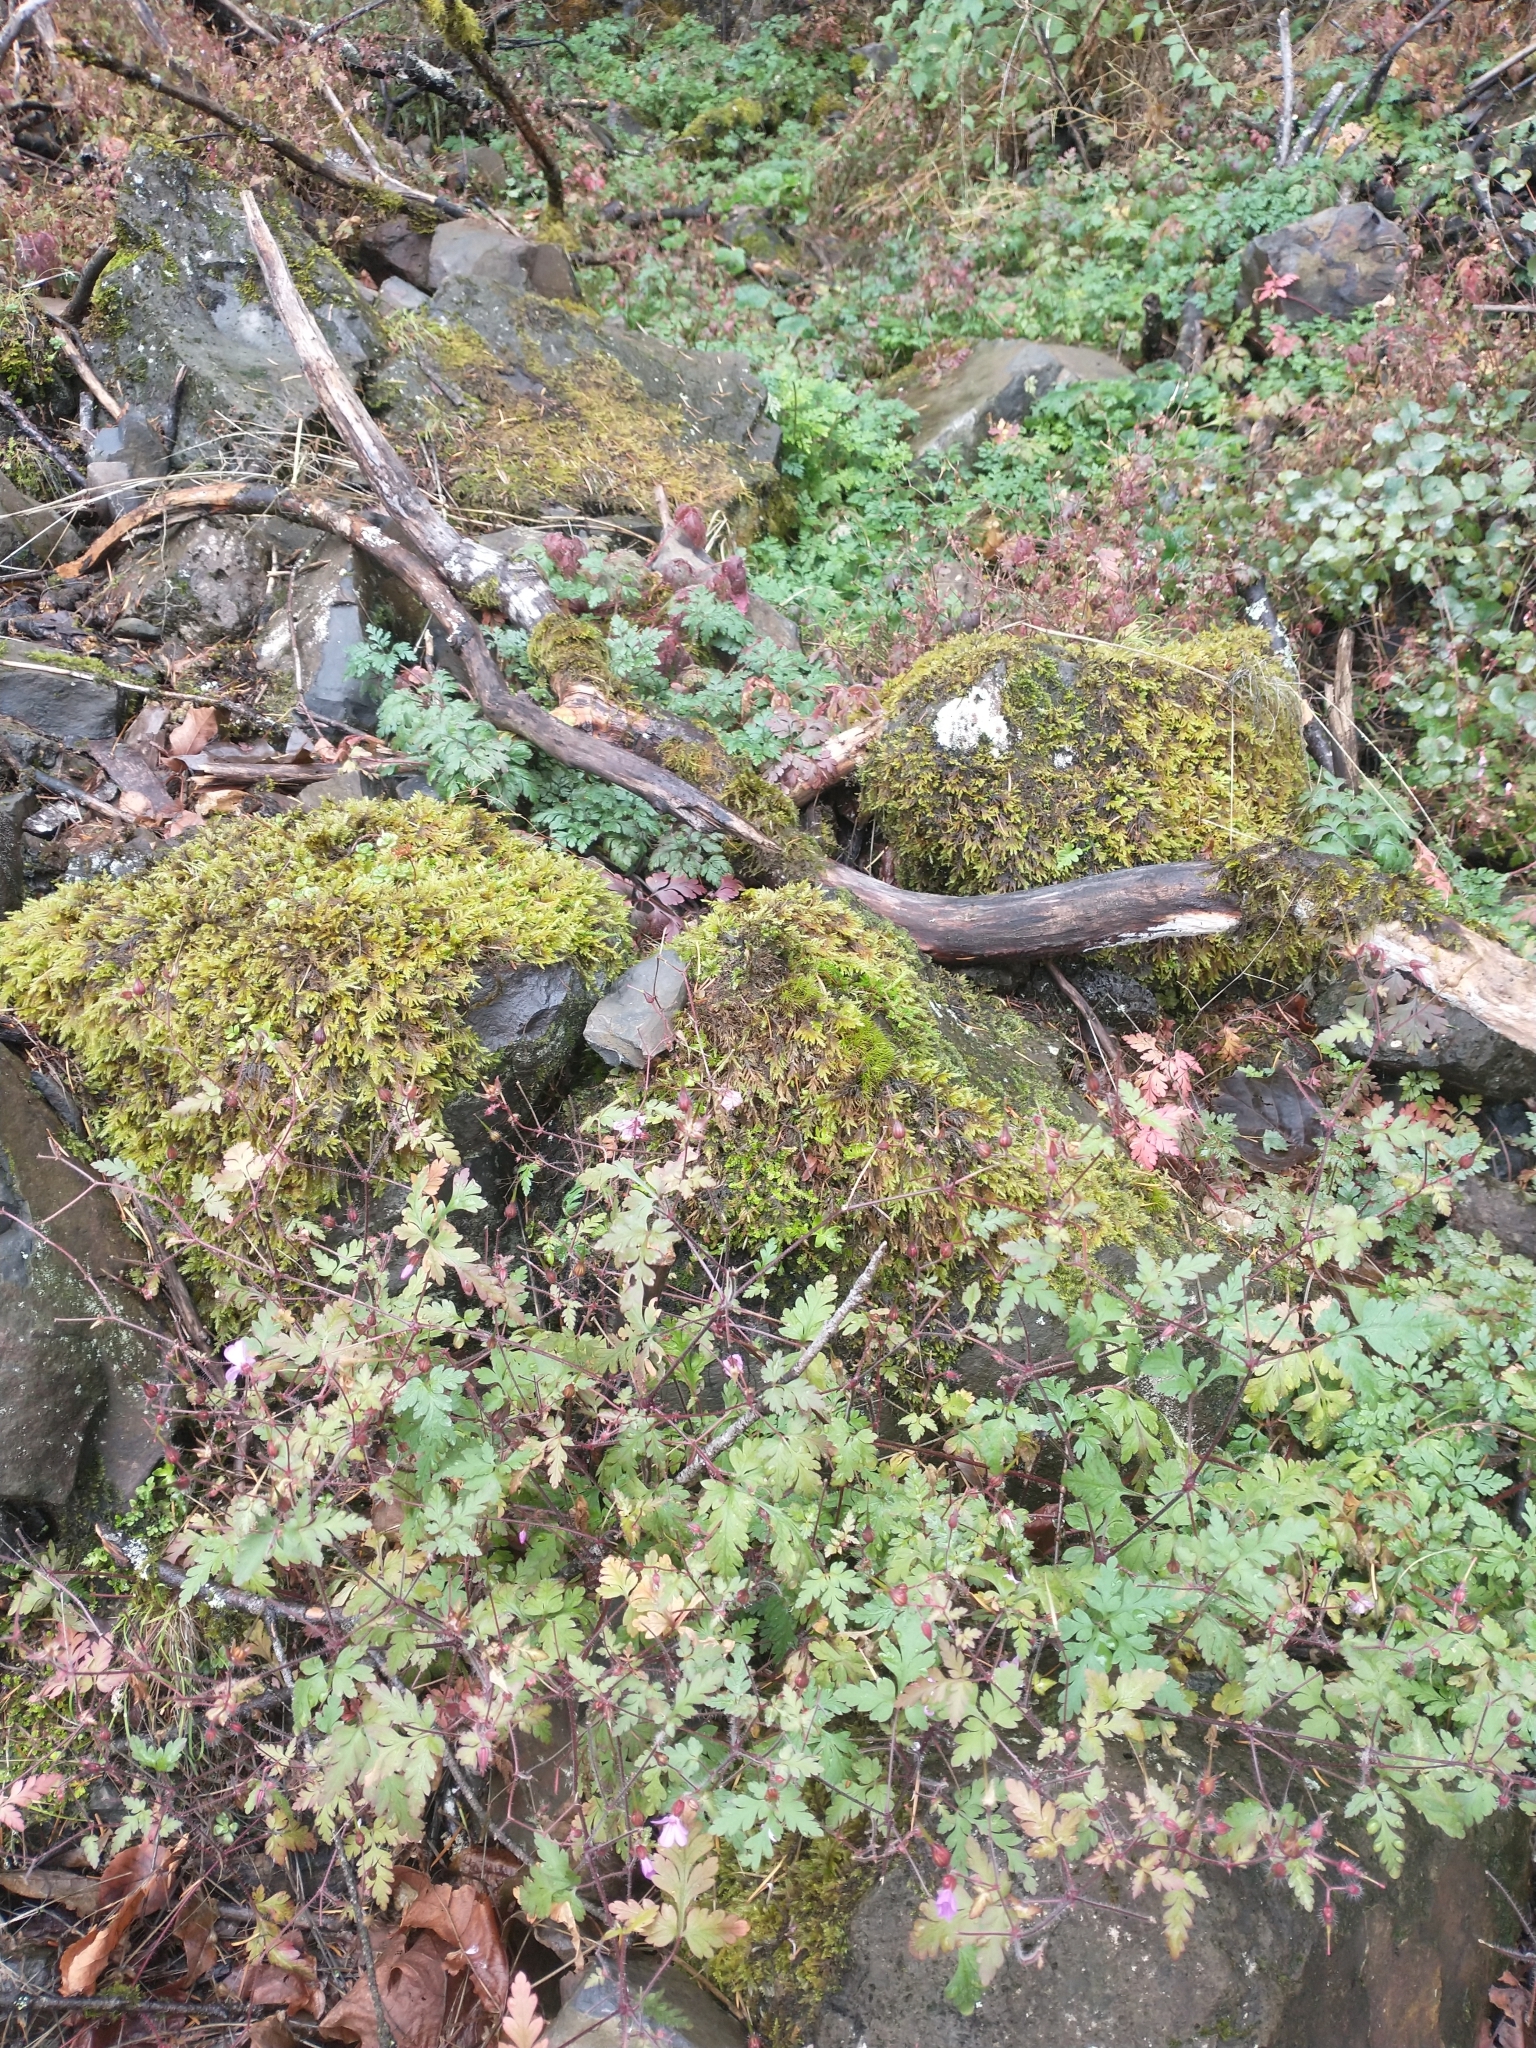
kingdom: Plantae
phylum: Tracheophyta
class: Magnoliopsida
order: Geraniales
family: Geraniaceae
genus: Geranium
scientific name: Geranium robertianum
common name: Herb-robert
